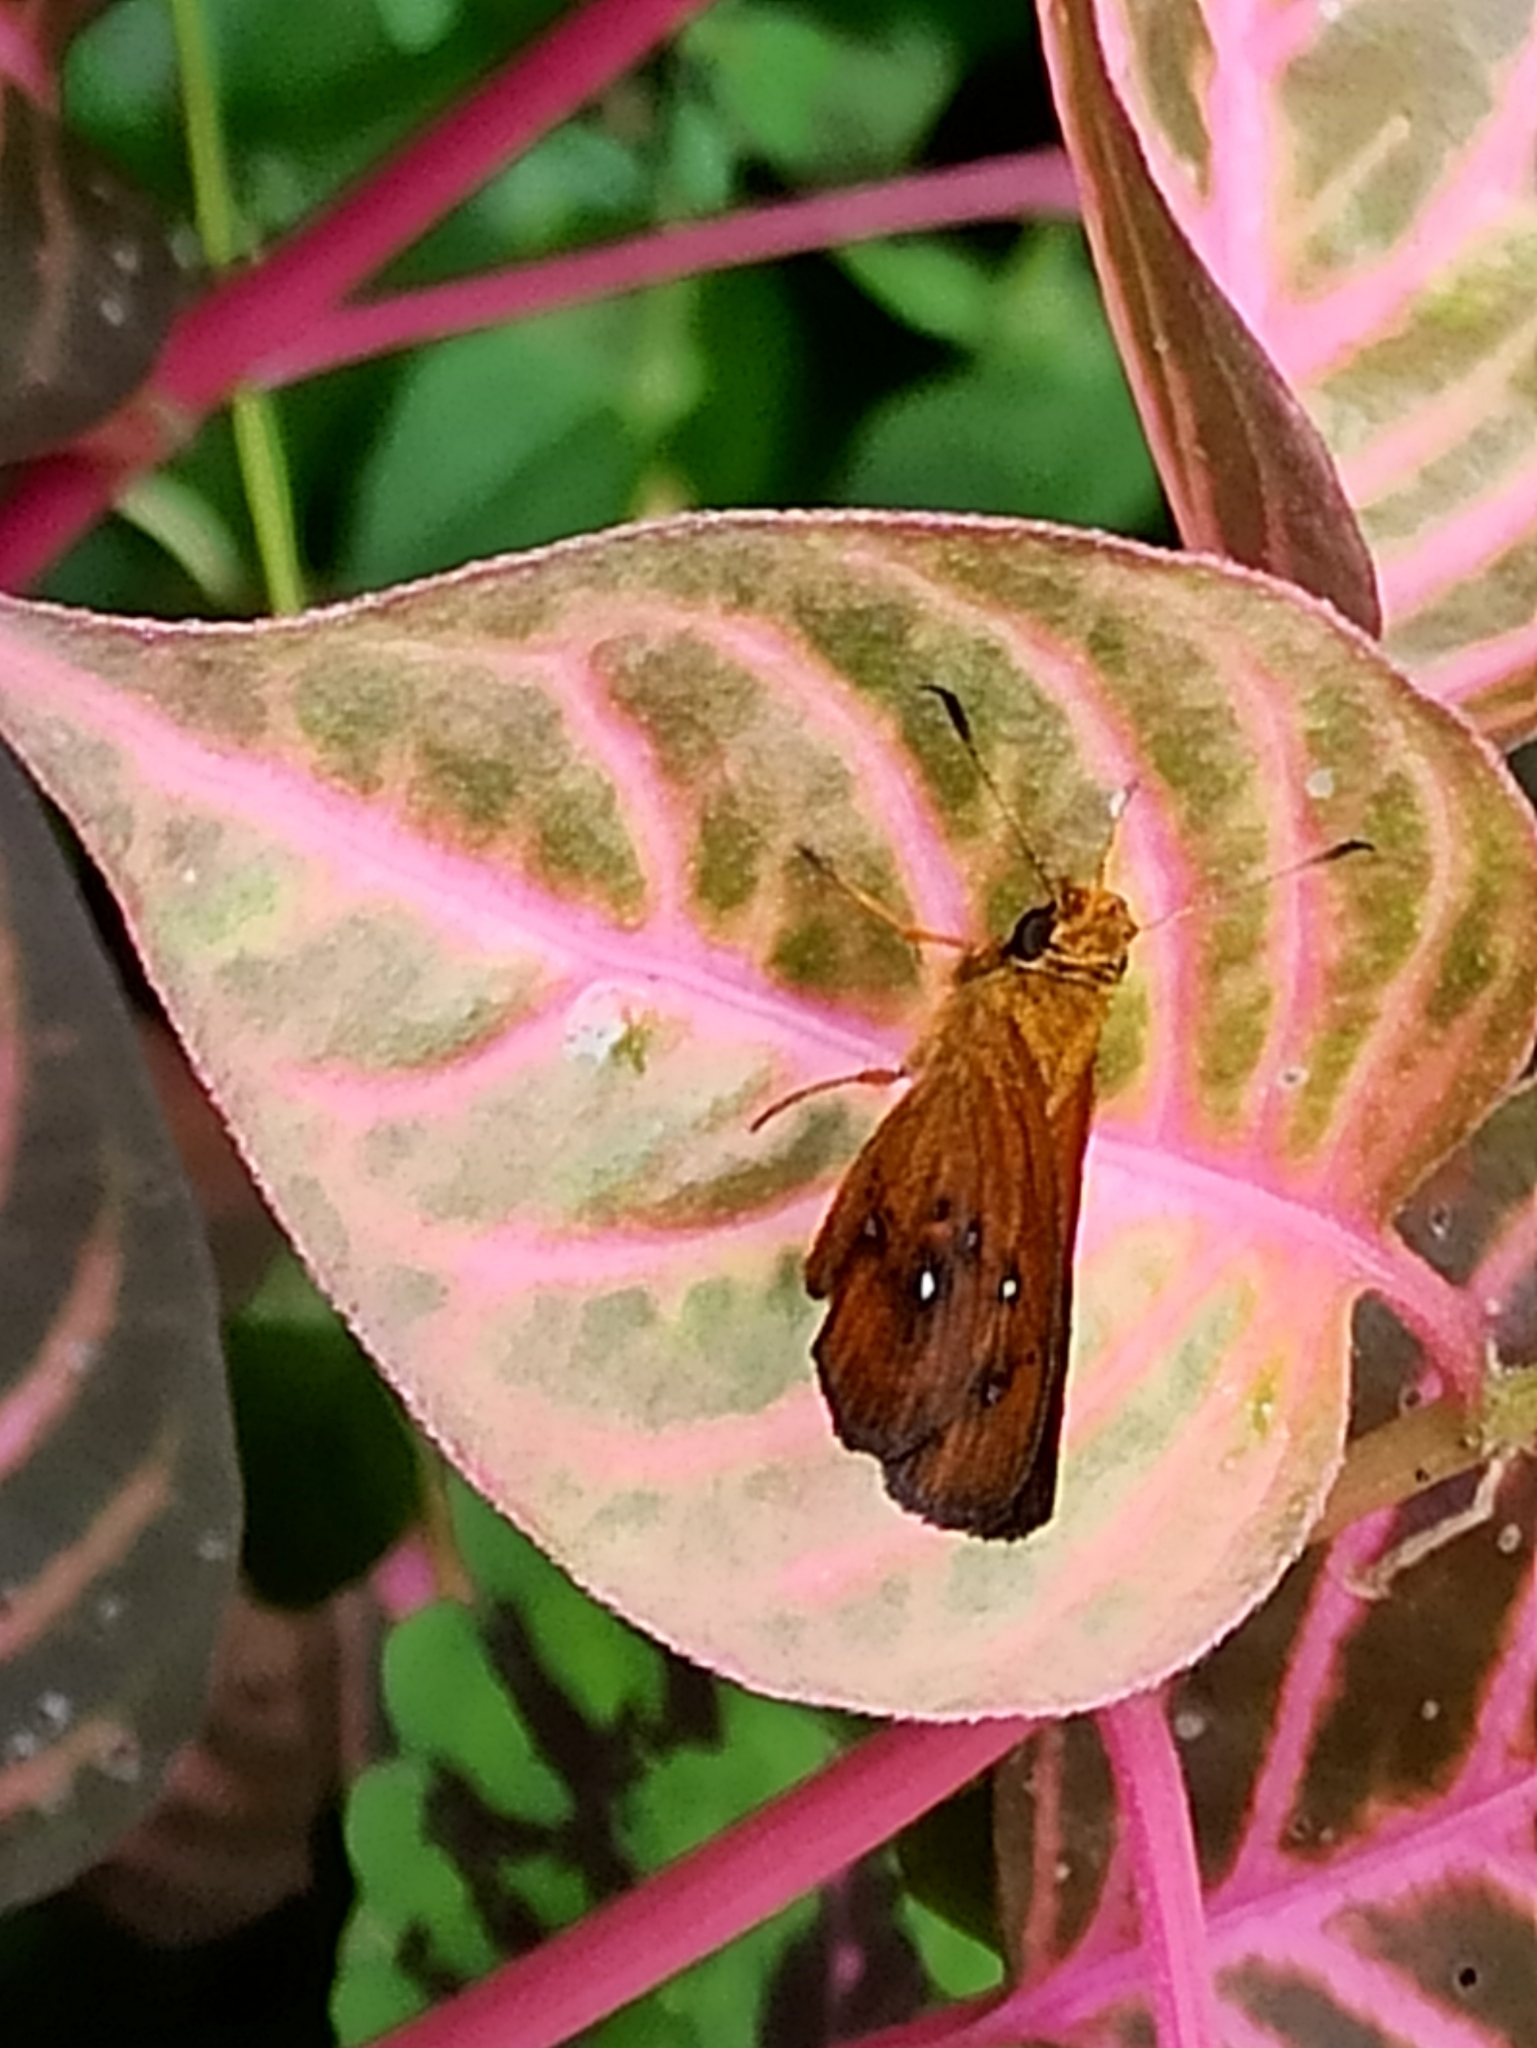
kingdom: Animalia
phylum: Arthropoda
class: Insecta
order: Lepidoptera
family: Hesperiidae
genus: Iambrix
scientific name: Iambrix salsala
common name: Chestnut bob
